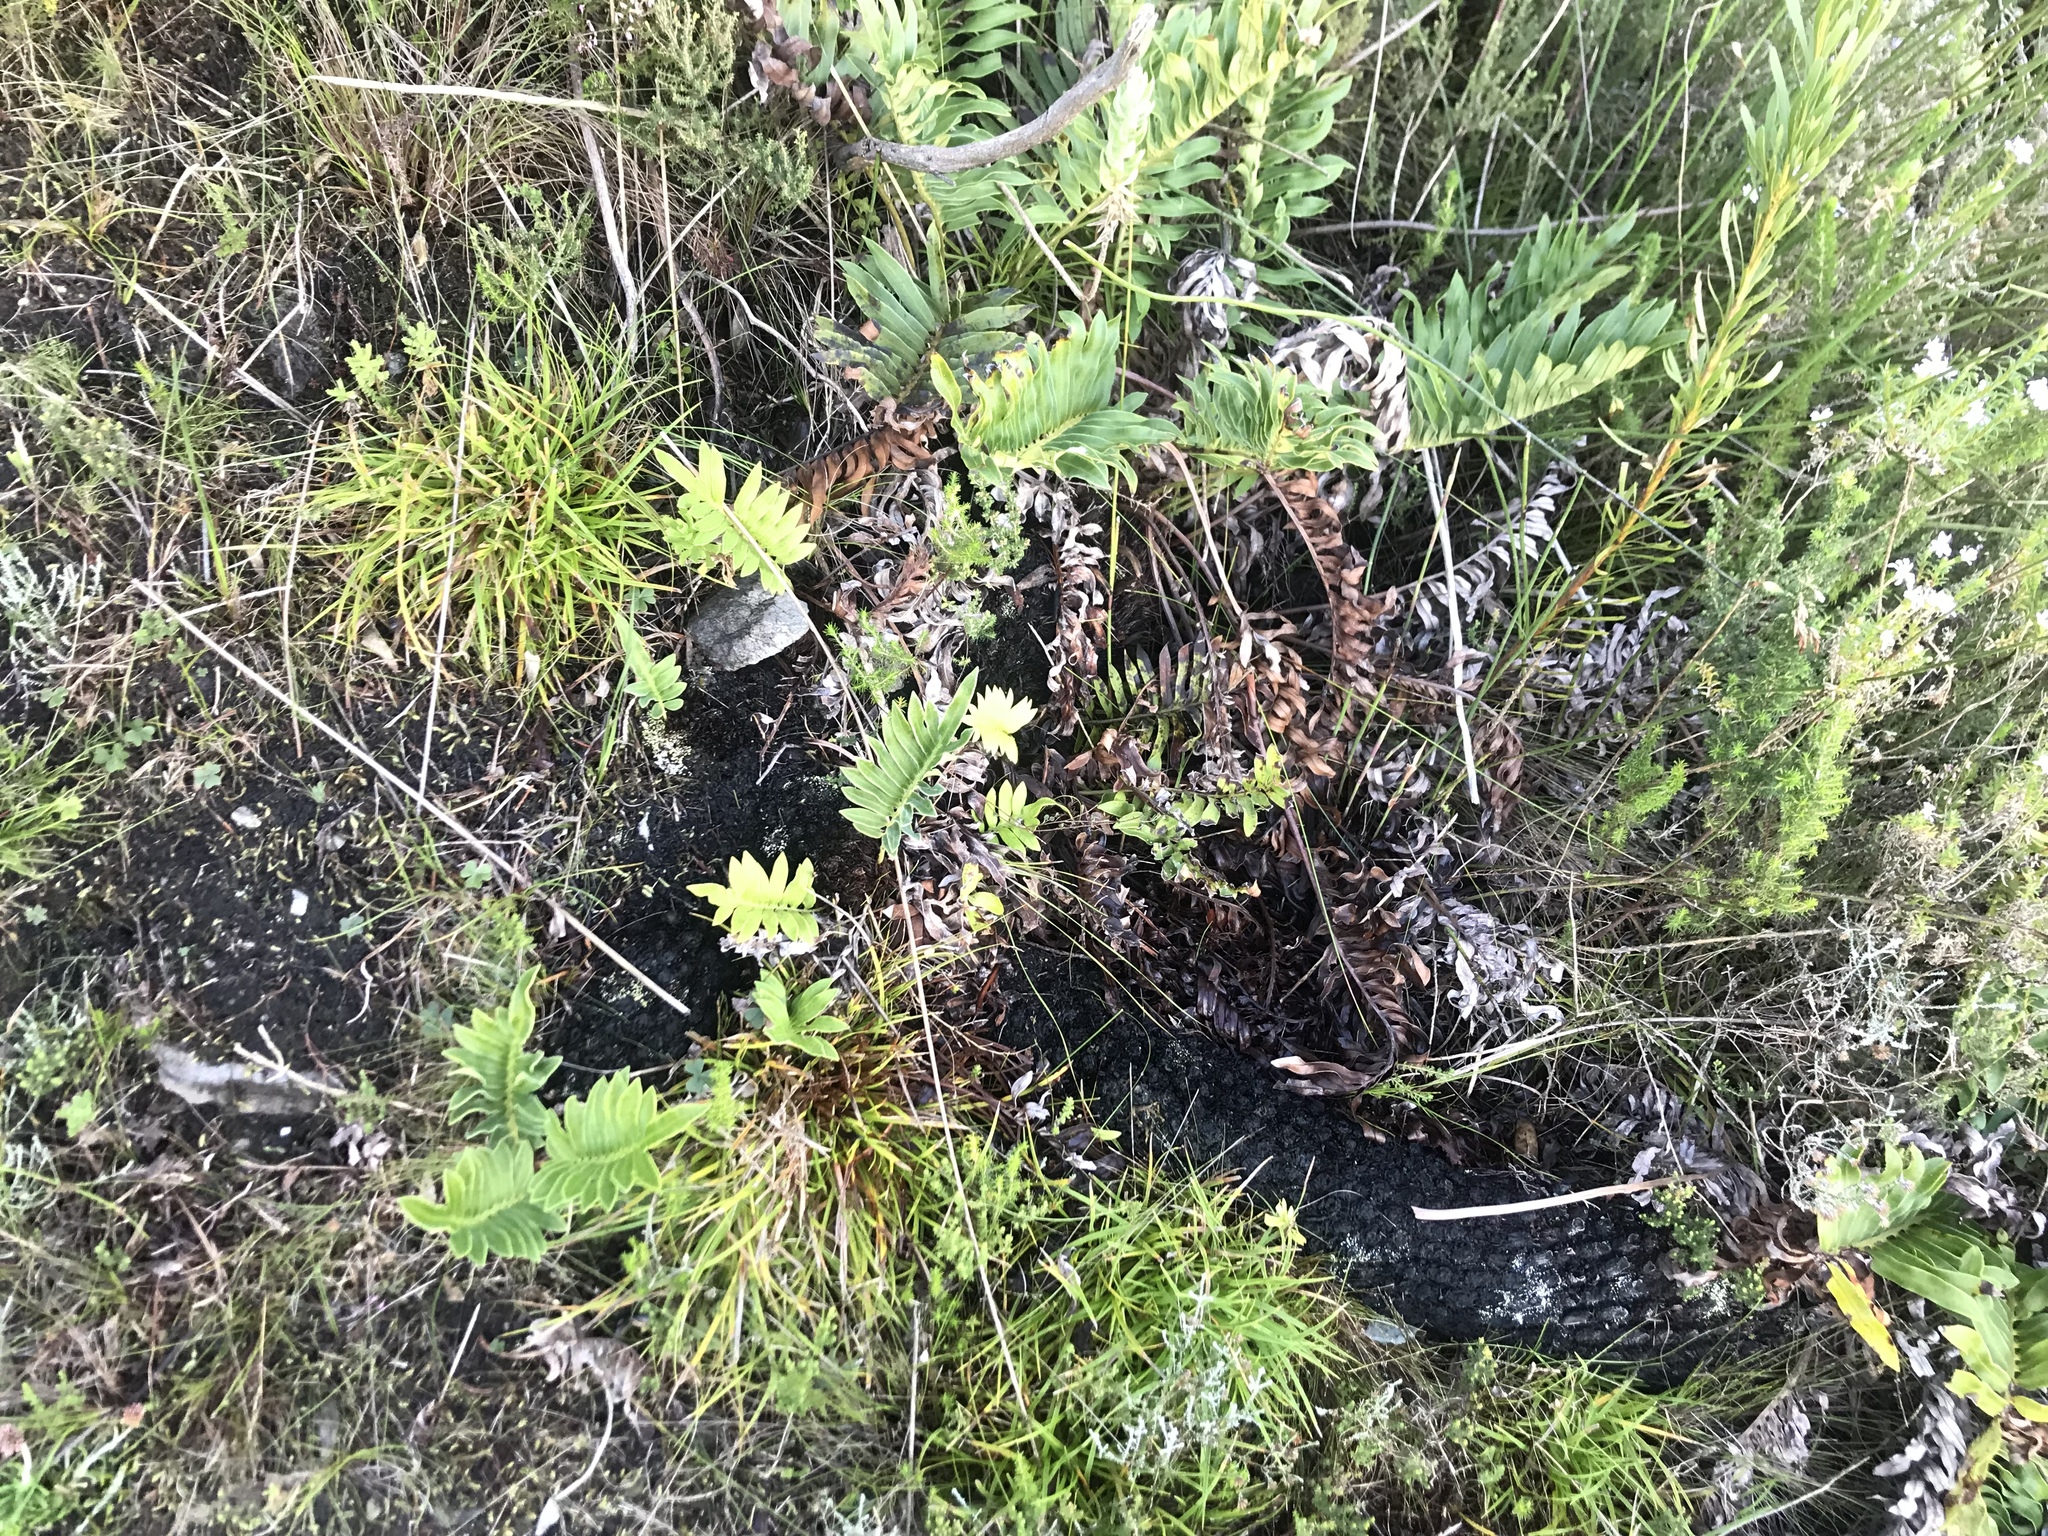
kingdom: Plantae
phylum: Tracheophyta
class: Polypodiopsida
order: Polypodiales
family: Blechnaceae
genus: Lomariocycas
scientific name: Lomariocycas tabularis
